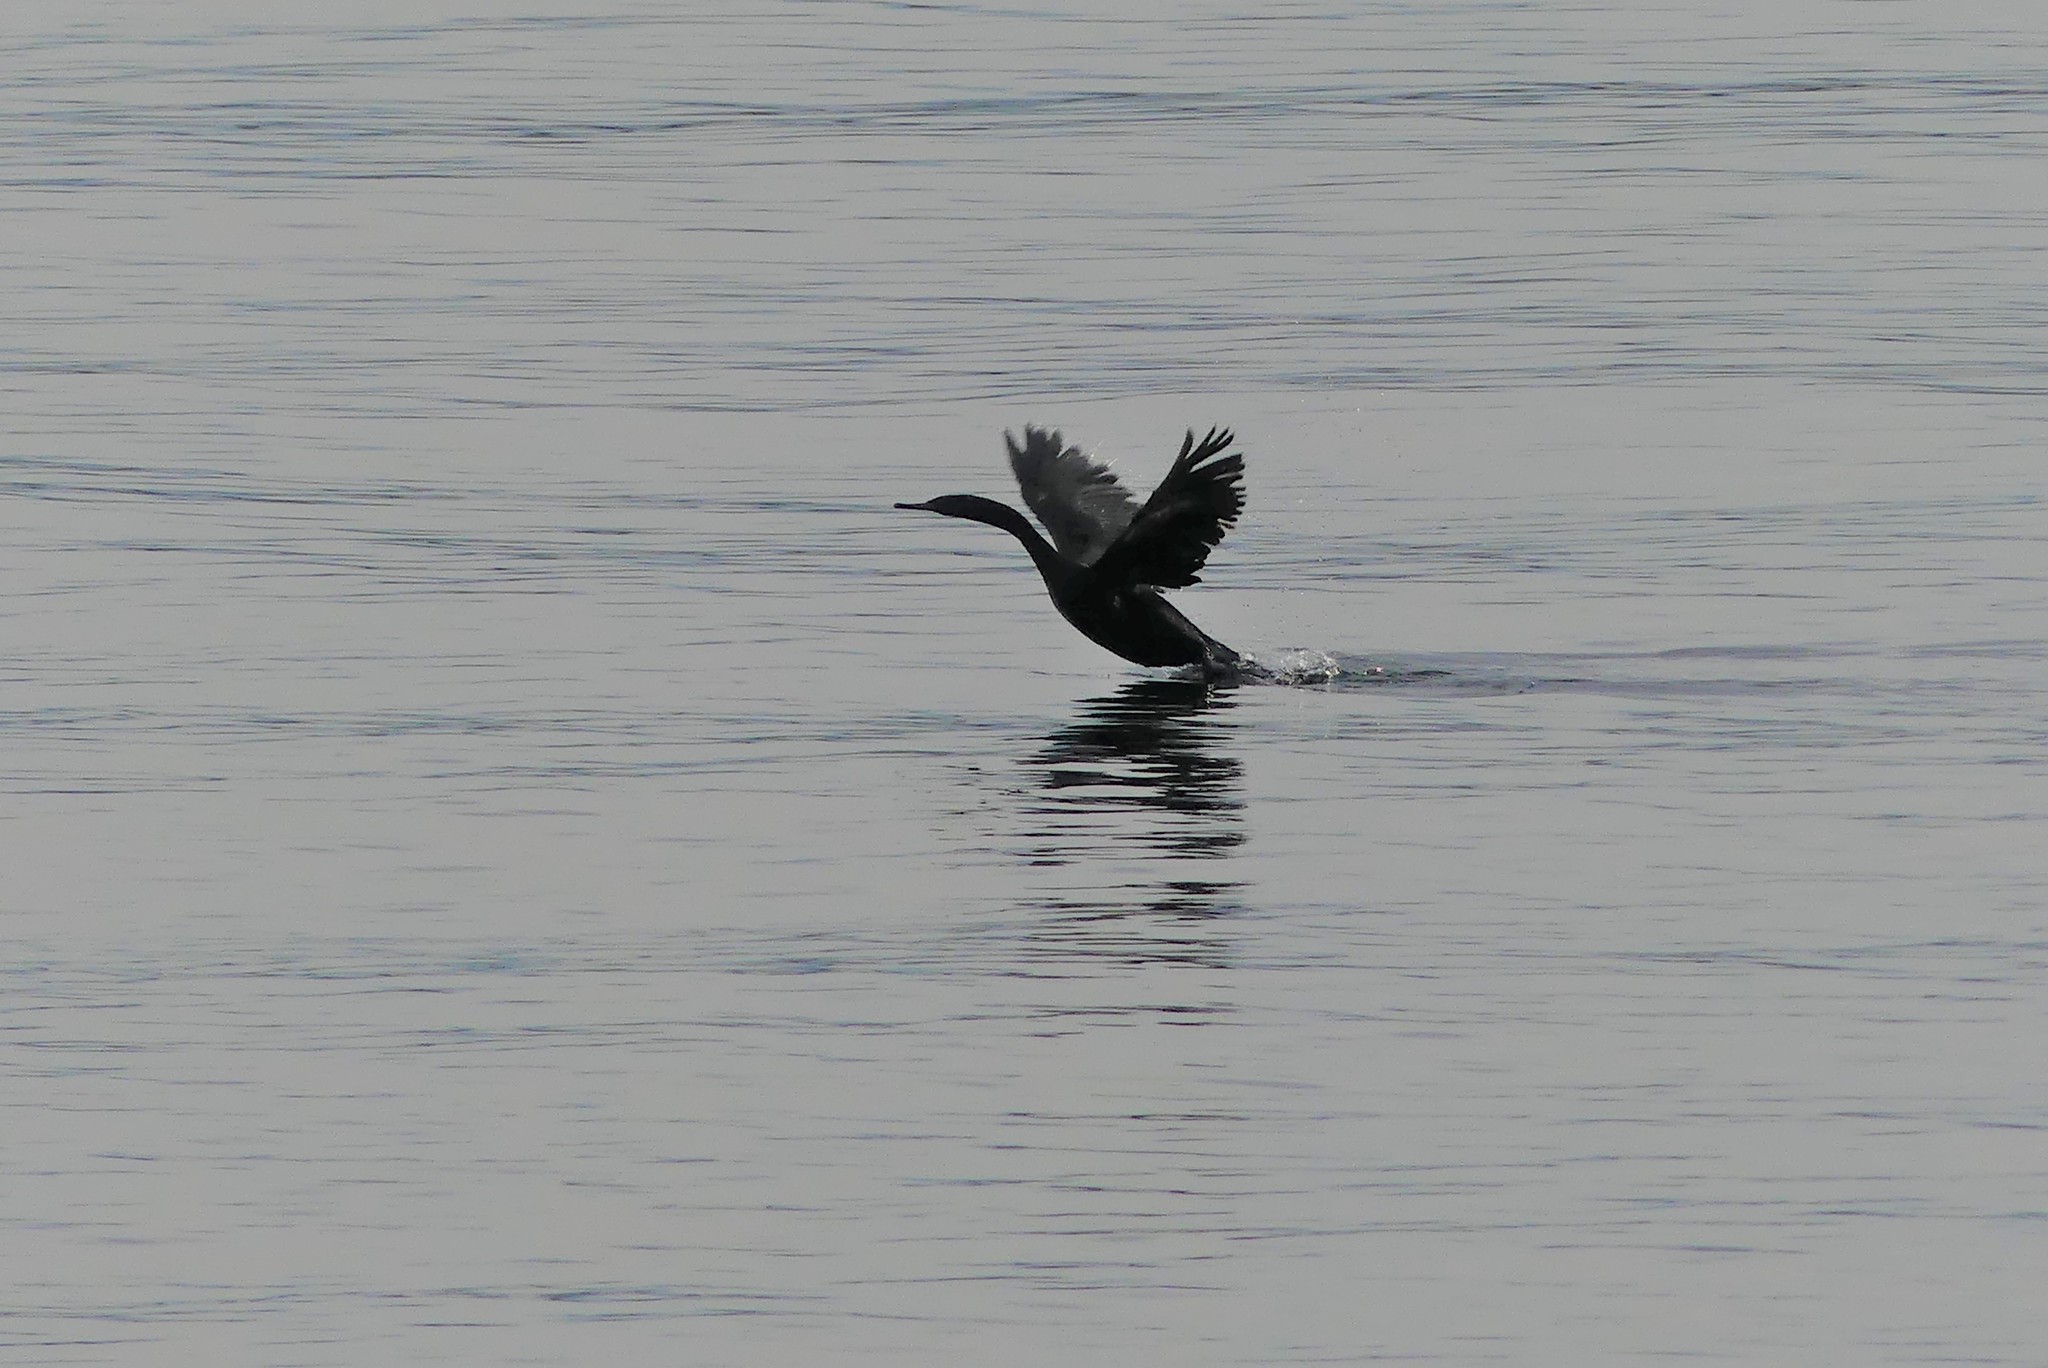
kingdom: Animalia
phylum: Chordata
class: Aves
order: Suliformes
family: Phalacrocoracidae
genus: Phalacrocorax
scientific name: Phalacrocorax pelagicus
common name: Pelagic cormorant
